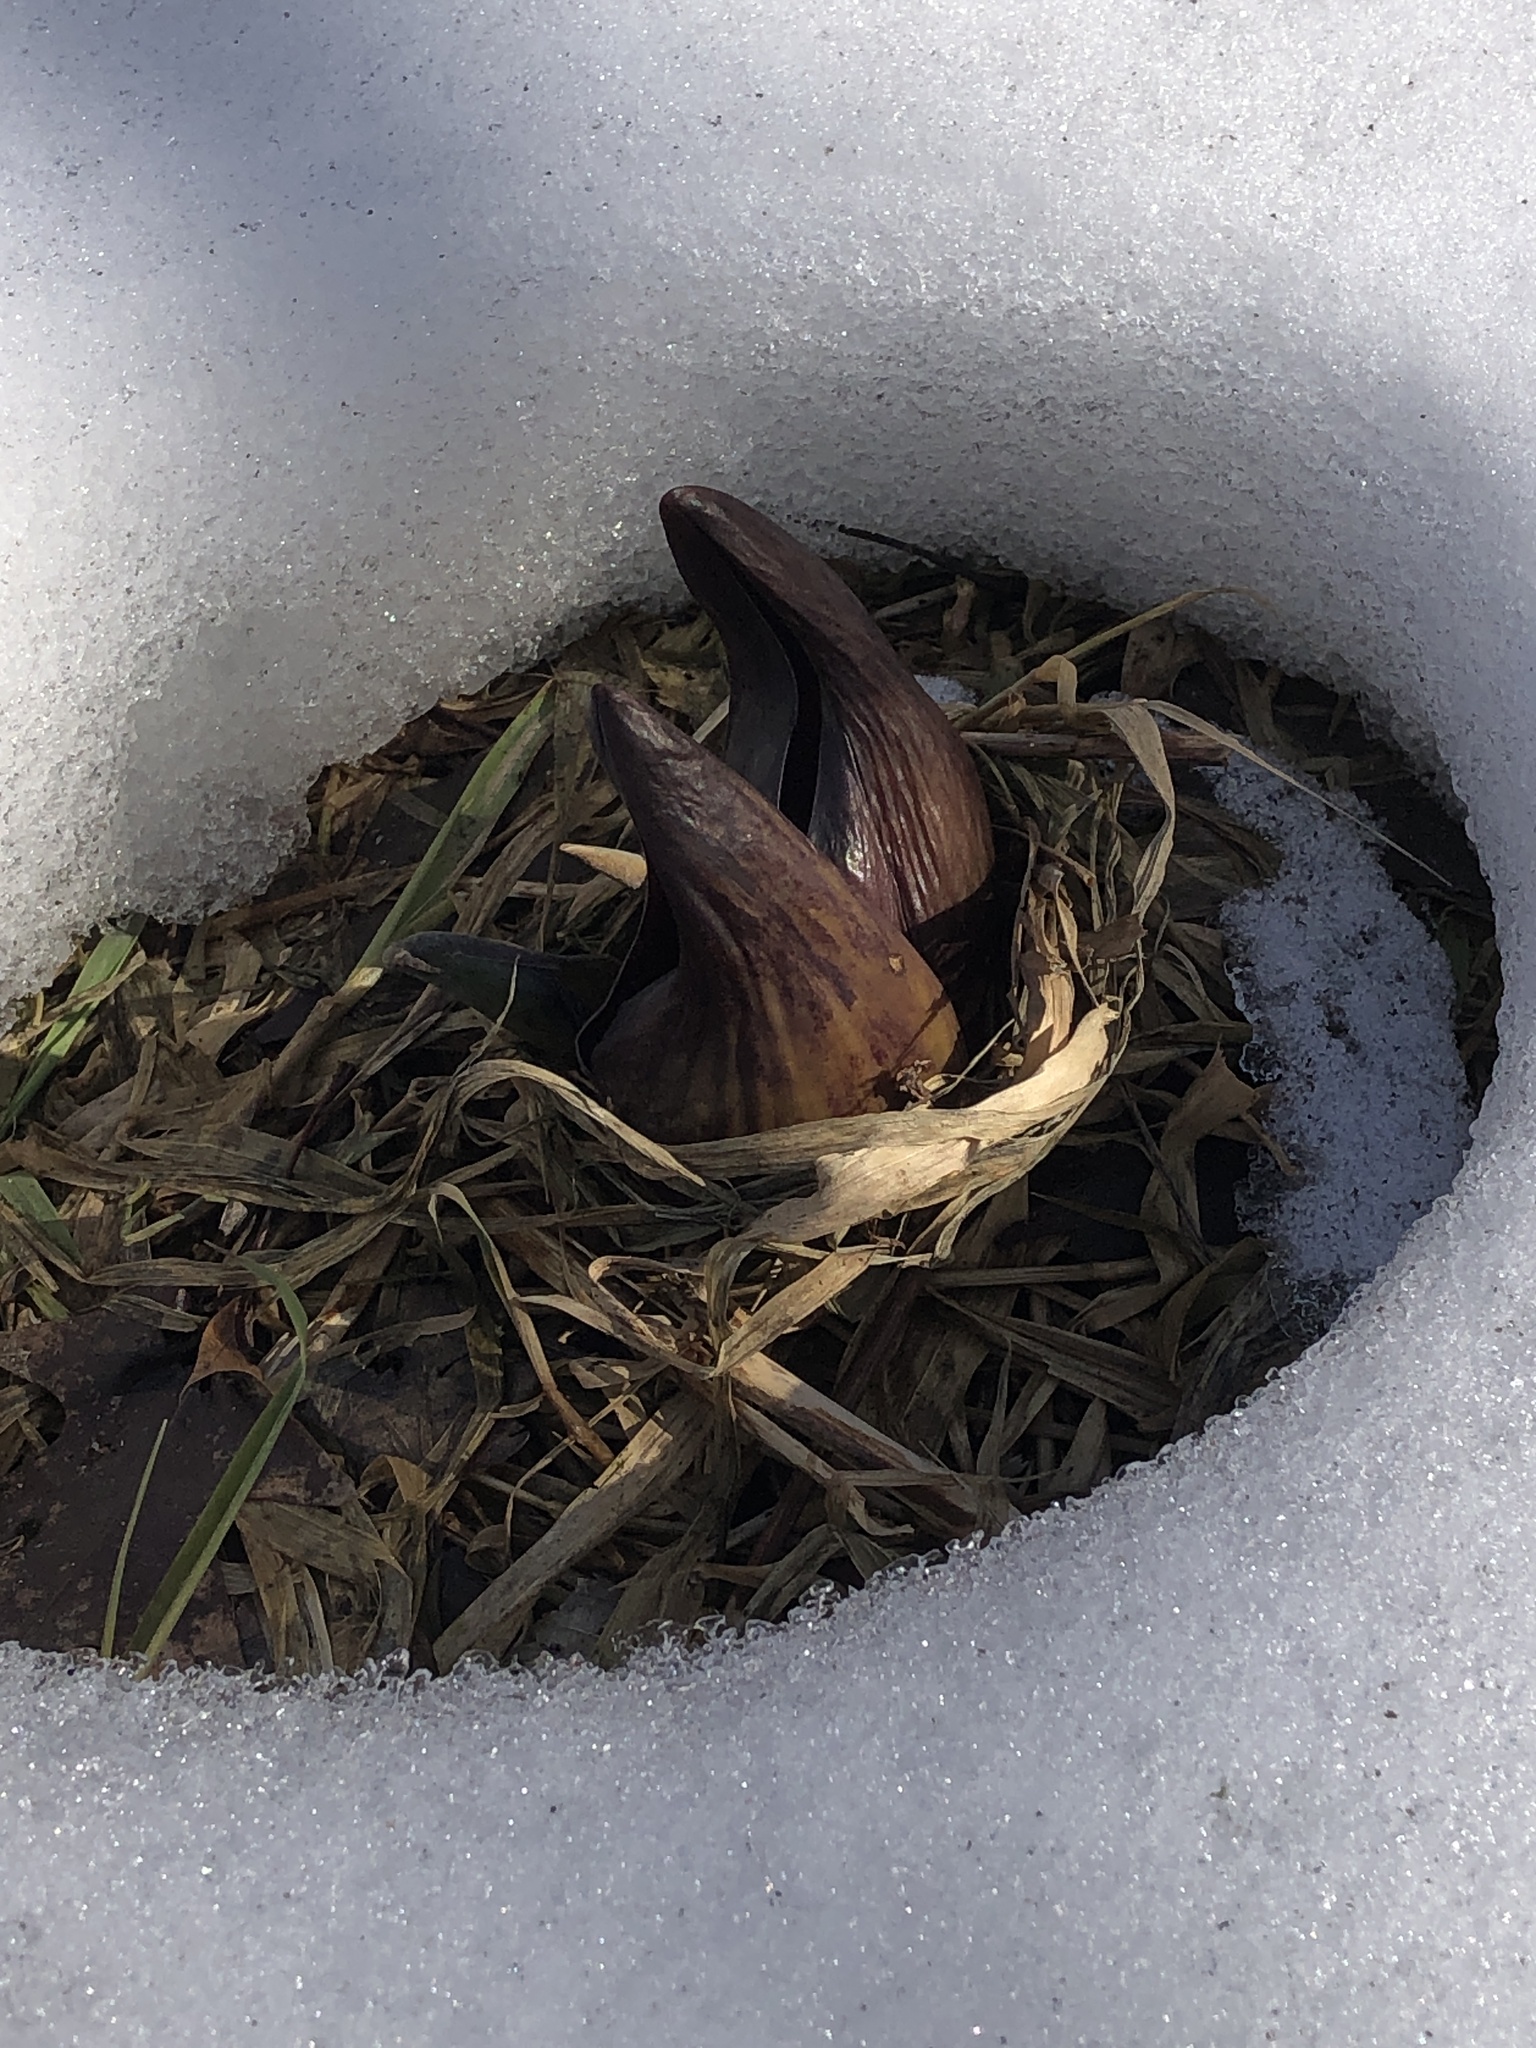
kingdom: Plantae
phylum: Tracheophyta
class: Liliopsida
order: Alismatales
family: Araceae
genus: Symplocarpus
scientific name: Symplocarpus foetidus
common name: Eastern skunk cabbage
